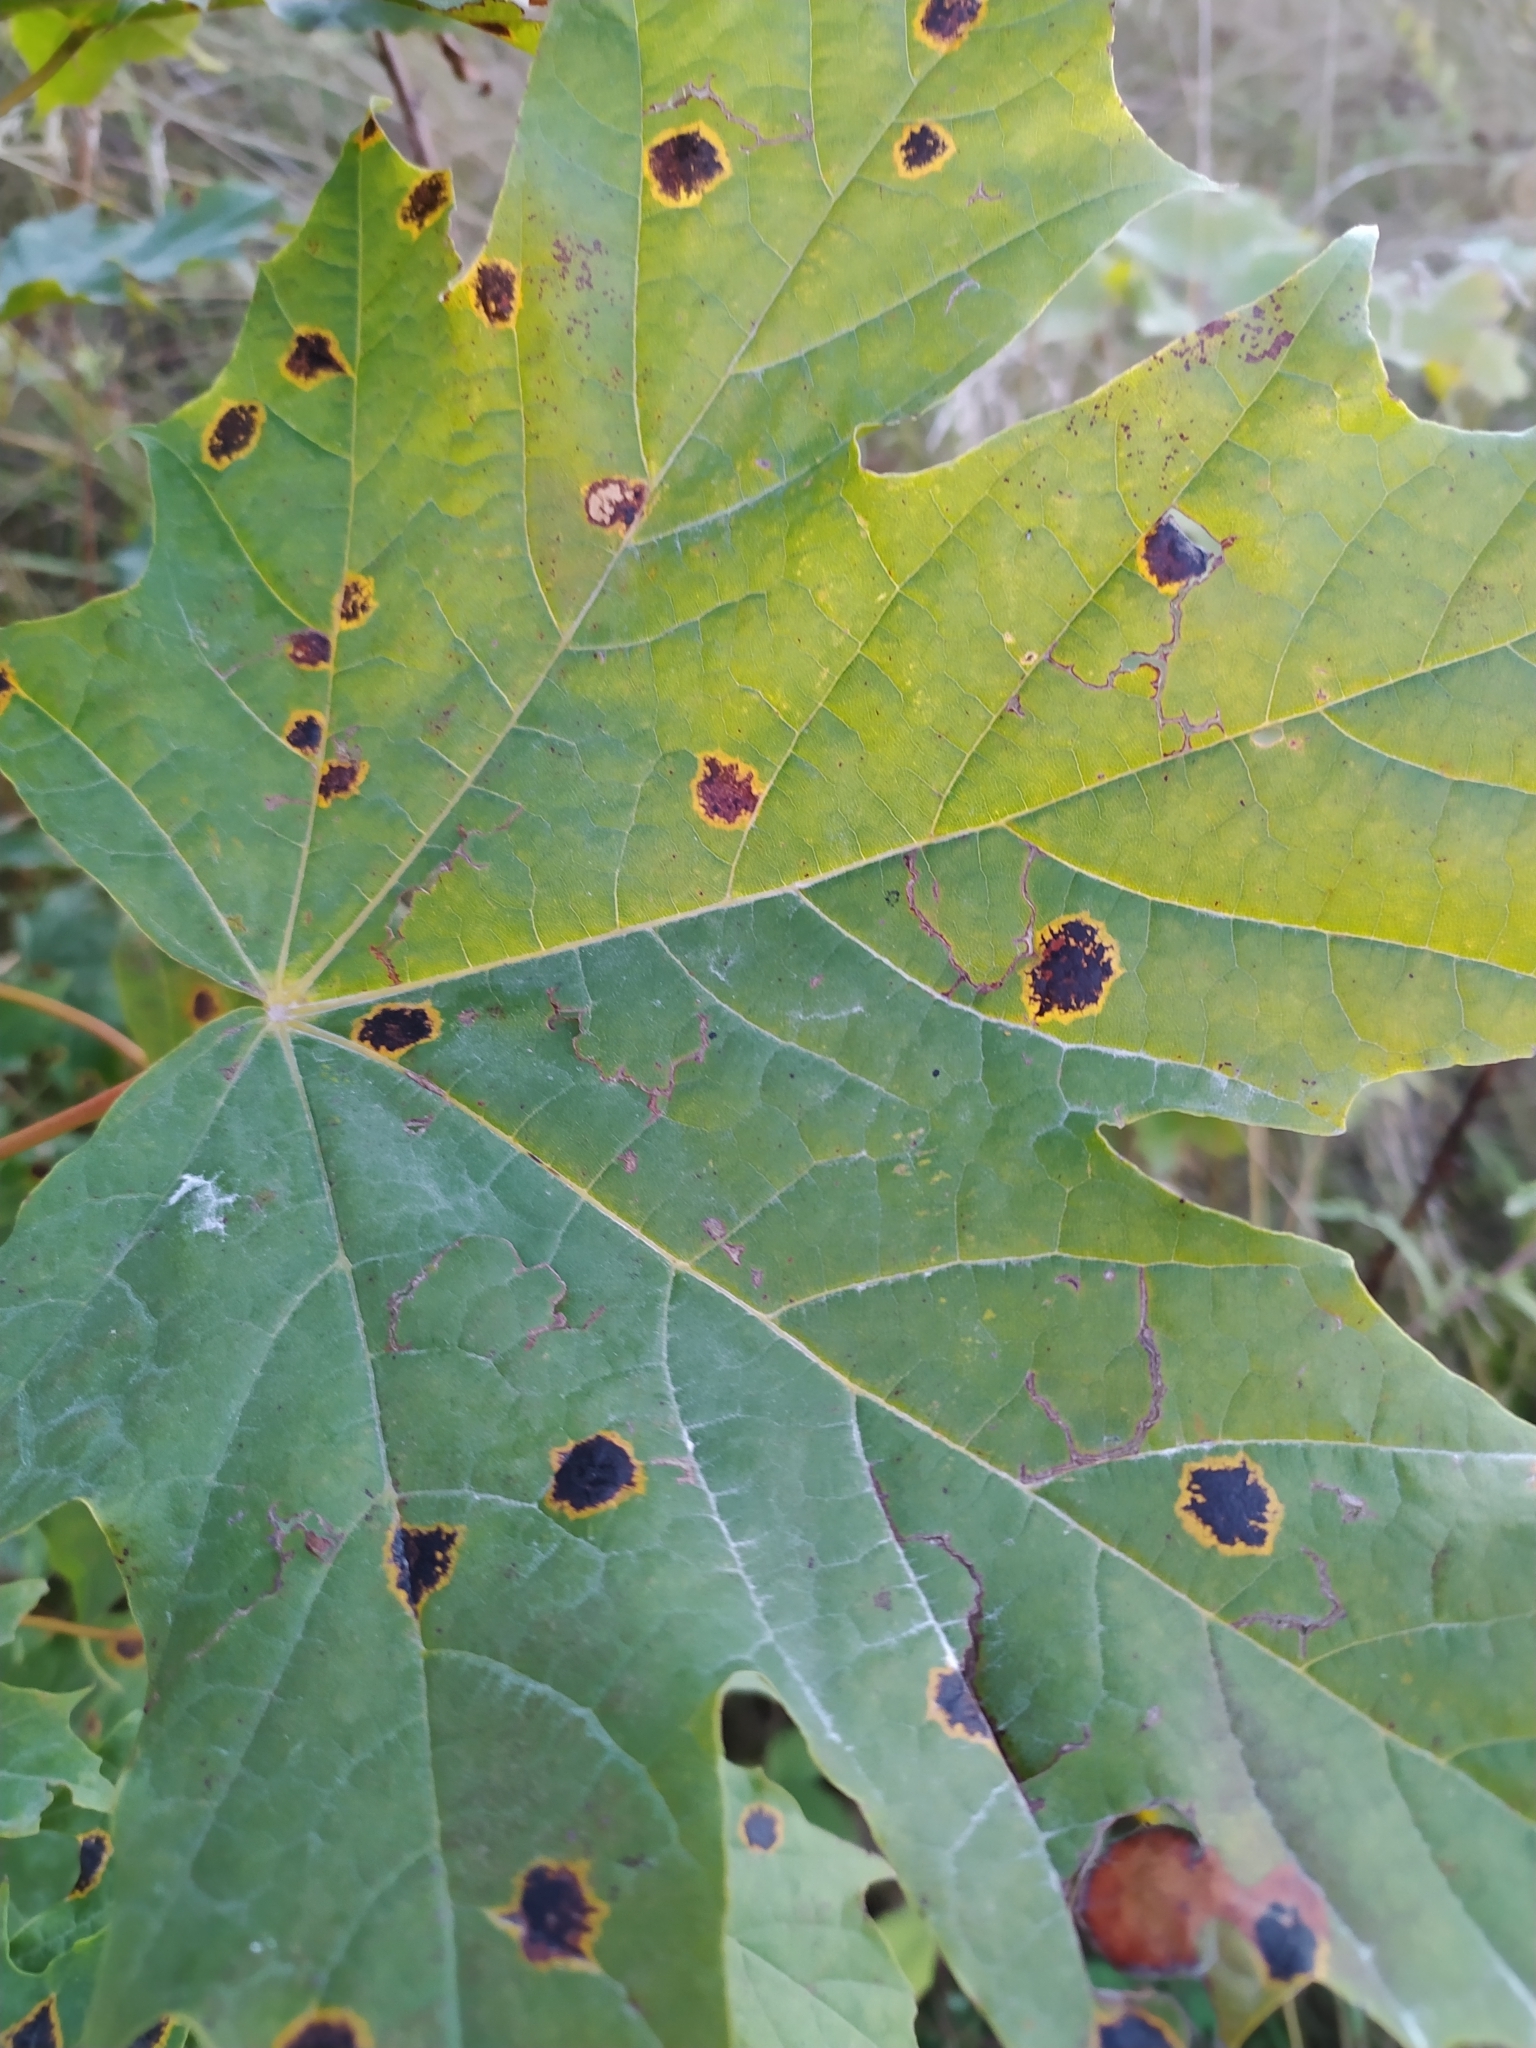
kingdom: Fungi
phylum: Ascomycota
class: Leotiomycetes
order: Rhytismatales
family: Rhytismataceae
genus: Rhytisma
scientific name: Rhytisma acerinum
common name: European tar spot
